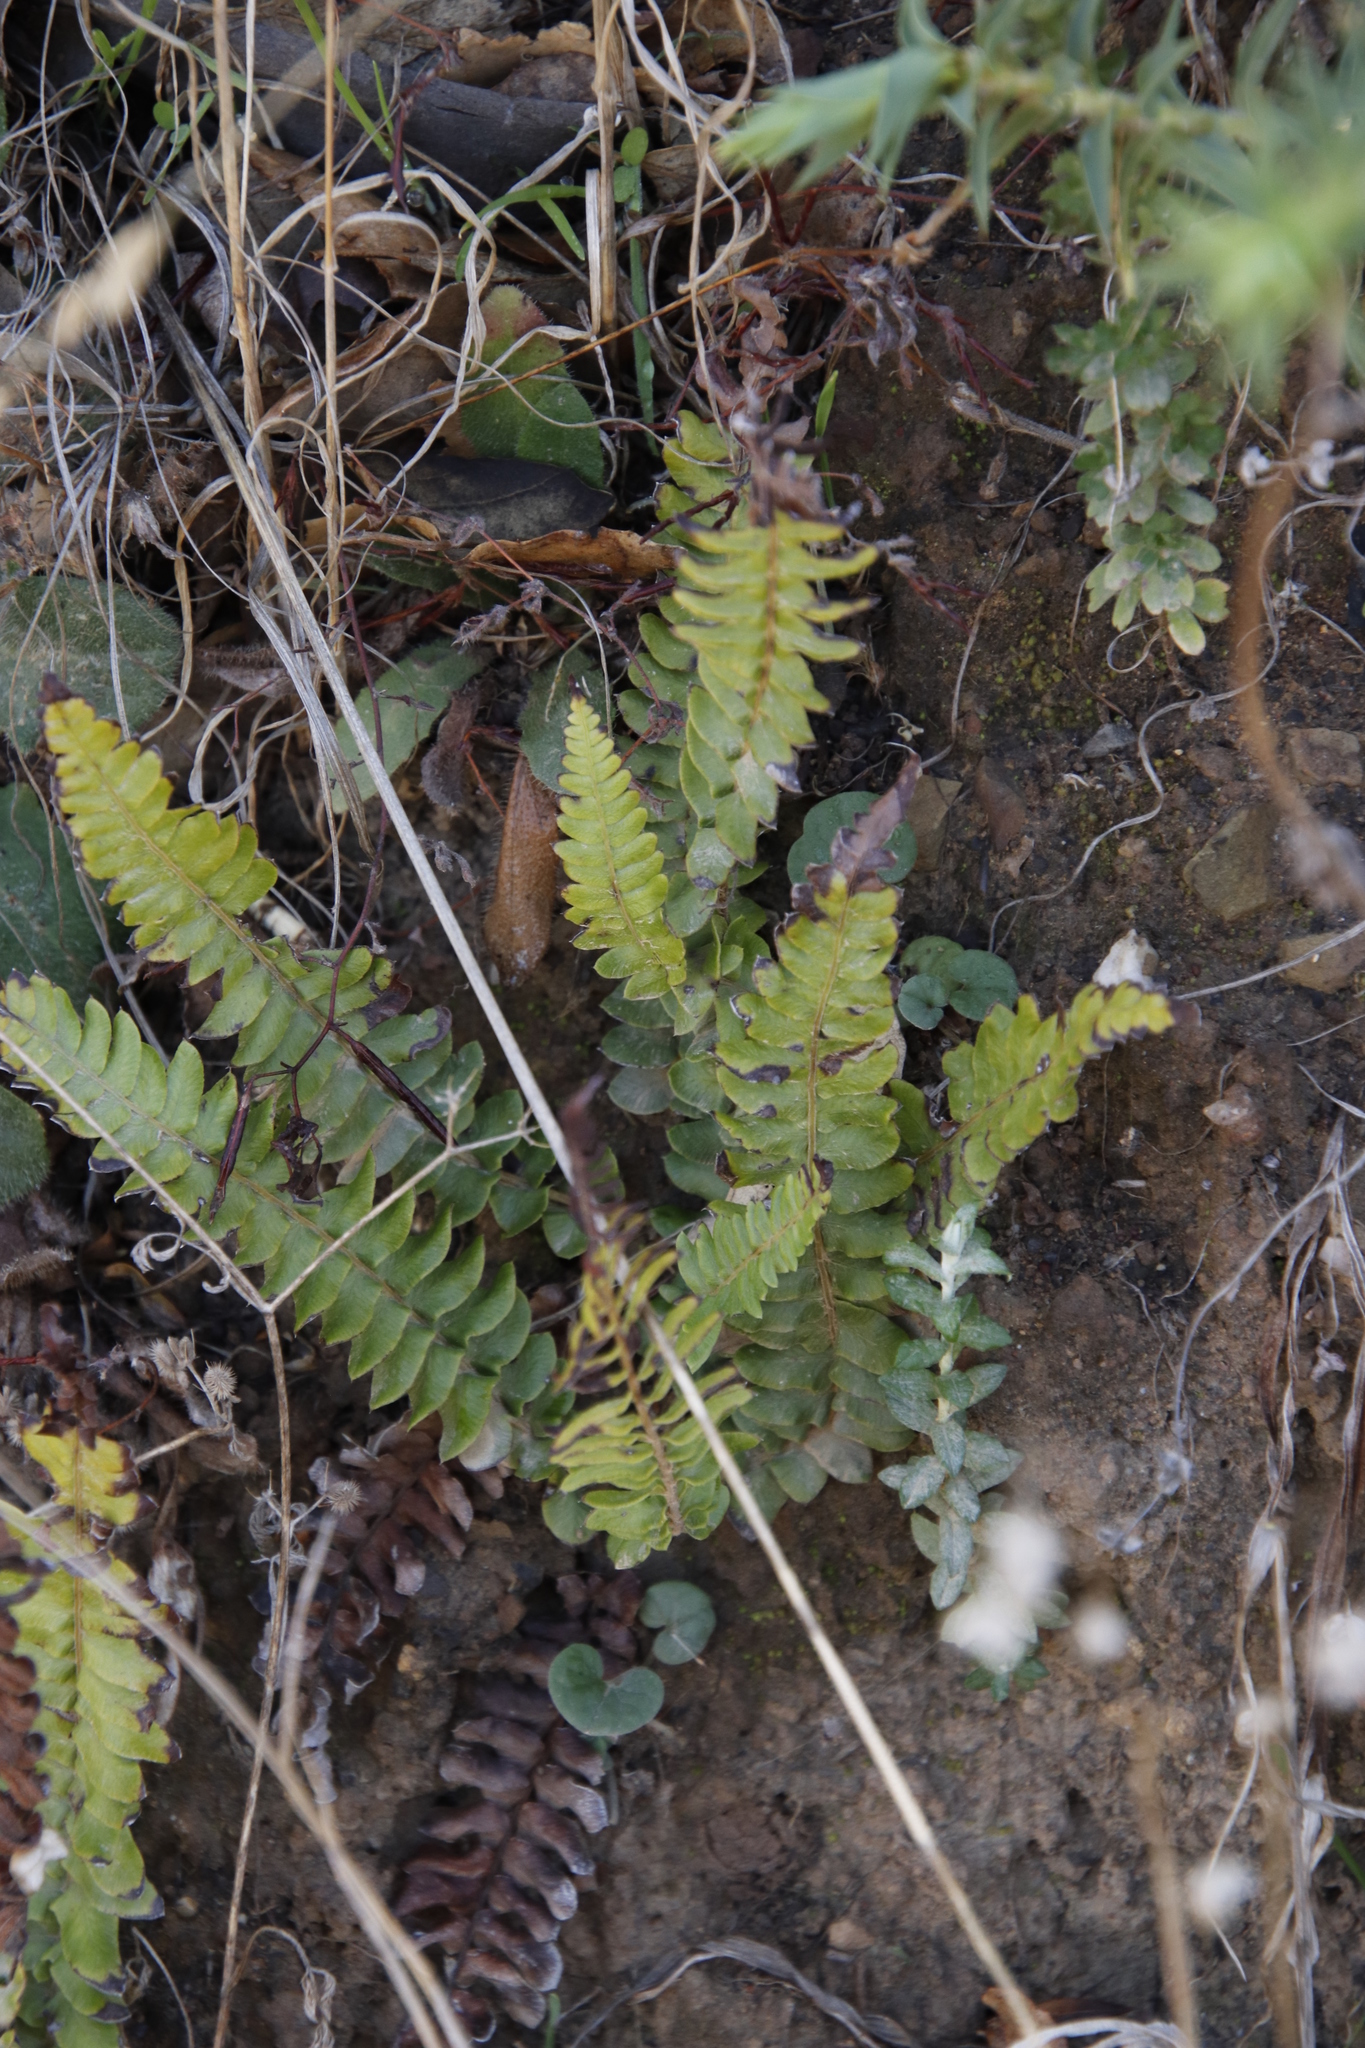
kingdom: Plantae
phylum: Tracheophyta
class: Polypodiopsida
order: Polypodiales
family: Blechnaceae
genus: Blechnum
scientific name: Blechnum australe
